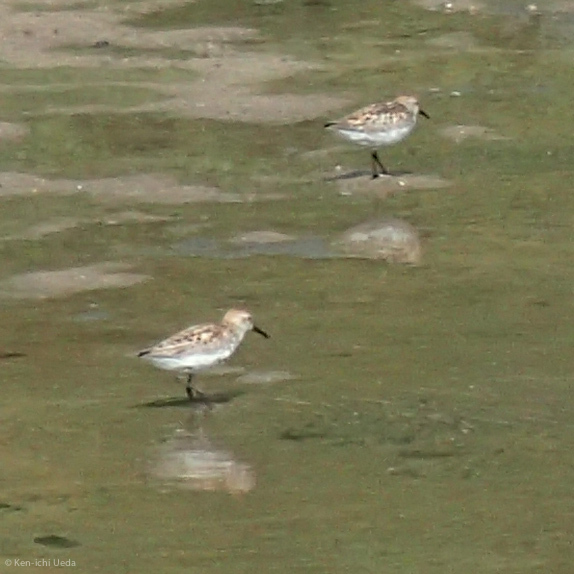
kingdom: Animalia
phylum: Chordata
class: Aves
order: Charadriiformes
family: Scolopacidae
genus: Calidris
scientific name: Calidris mauri
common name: Western sandpiper
